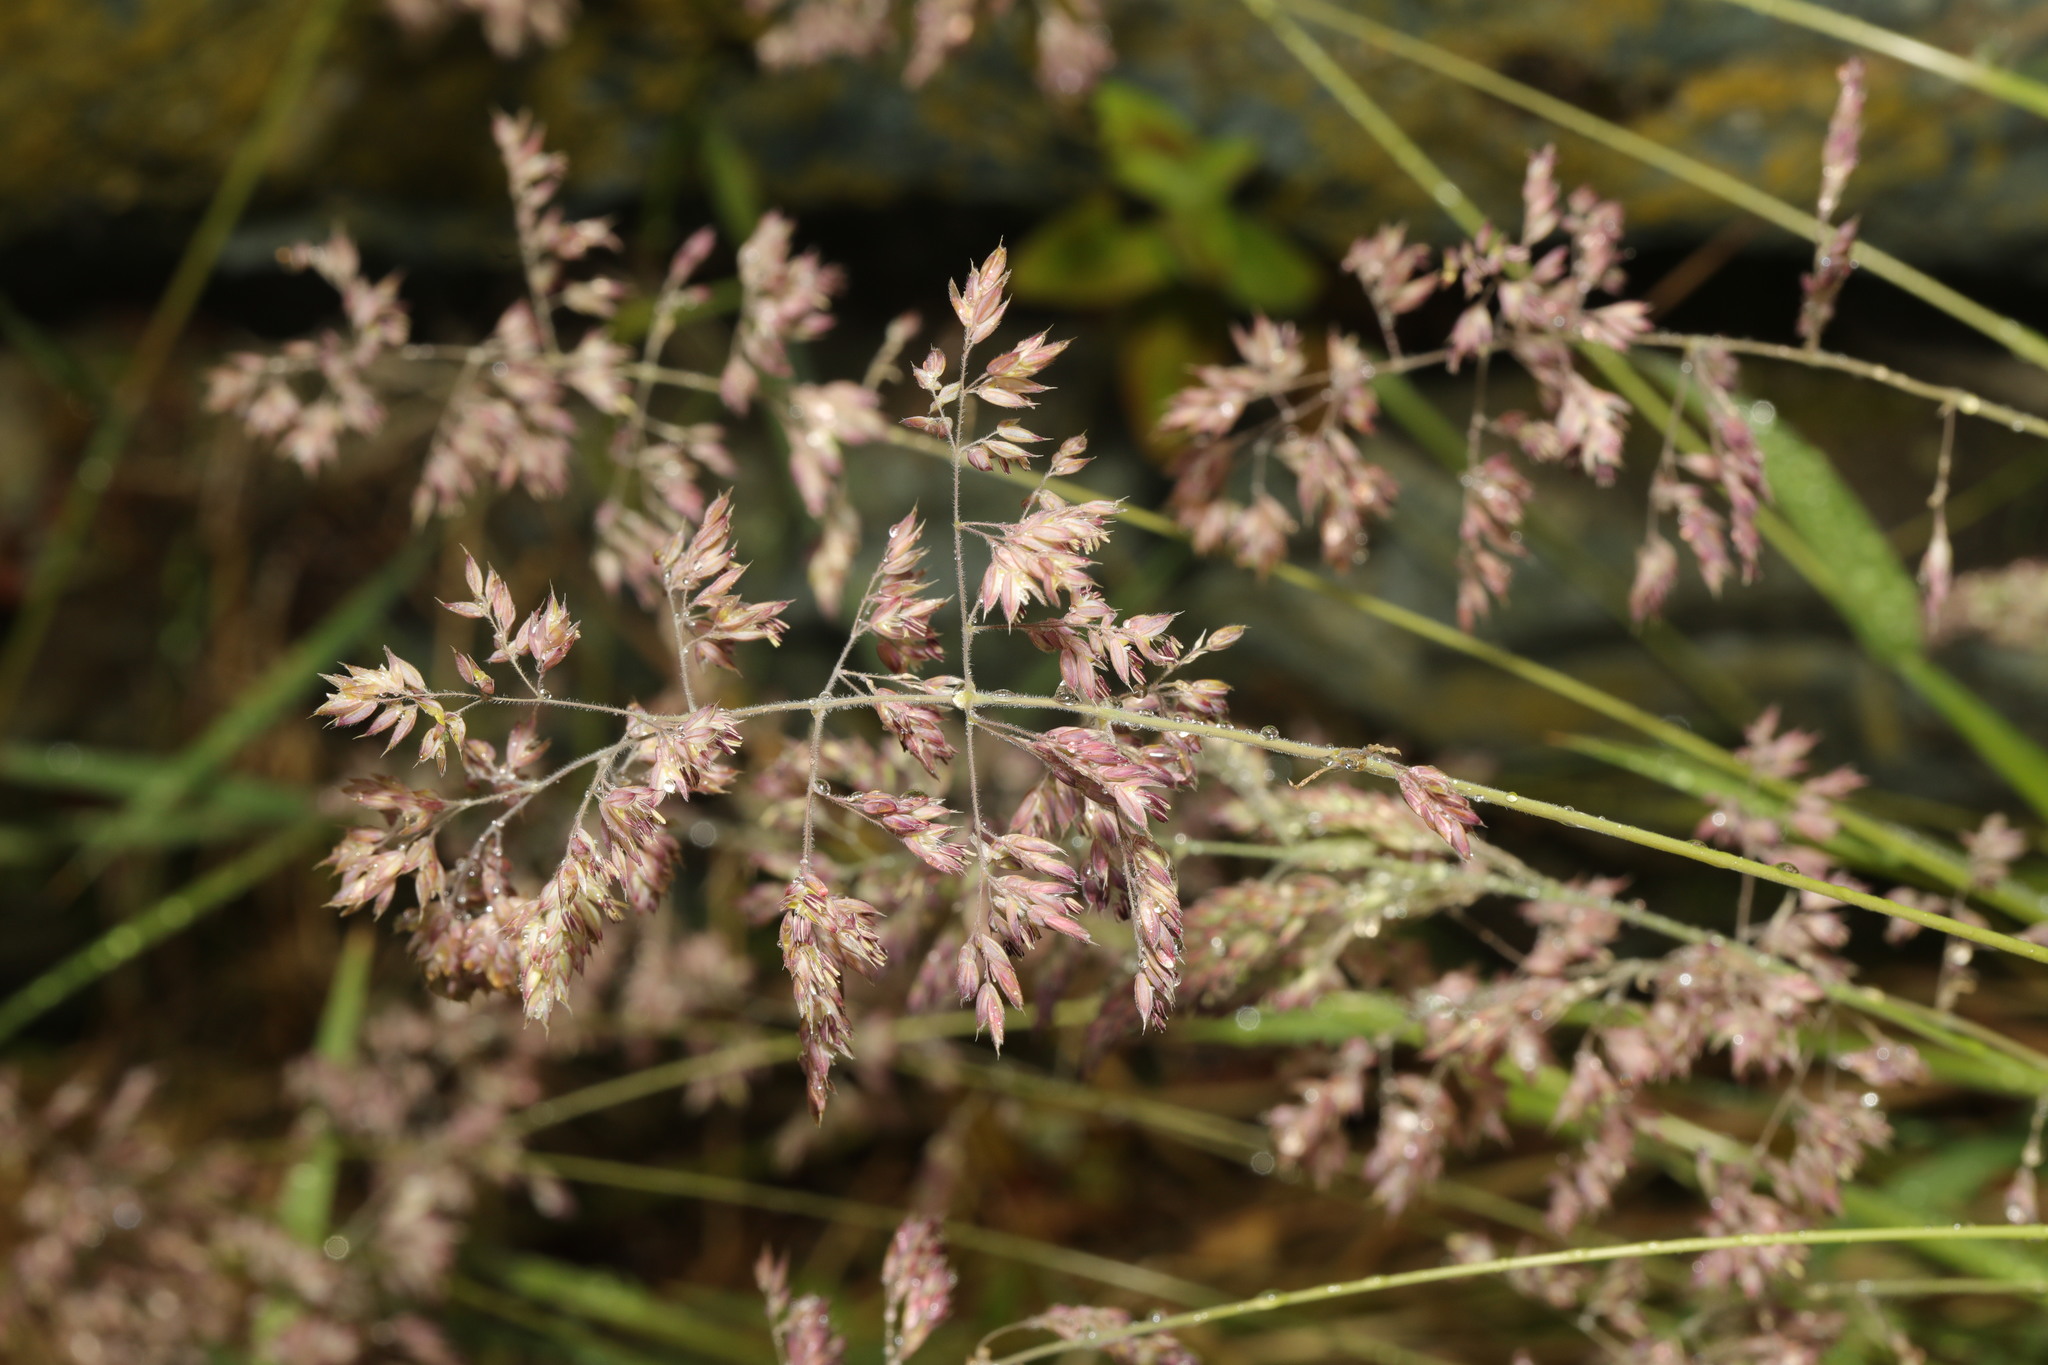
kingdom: Plantae
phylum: Tracheophyta
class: Liliopsida
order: Poales
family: Poaceae
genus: Holcus
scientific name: Holcus lanatus
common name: Yorkshire-fog
